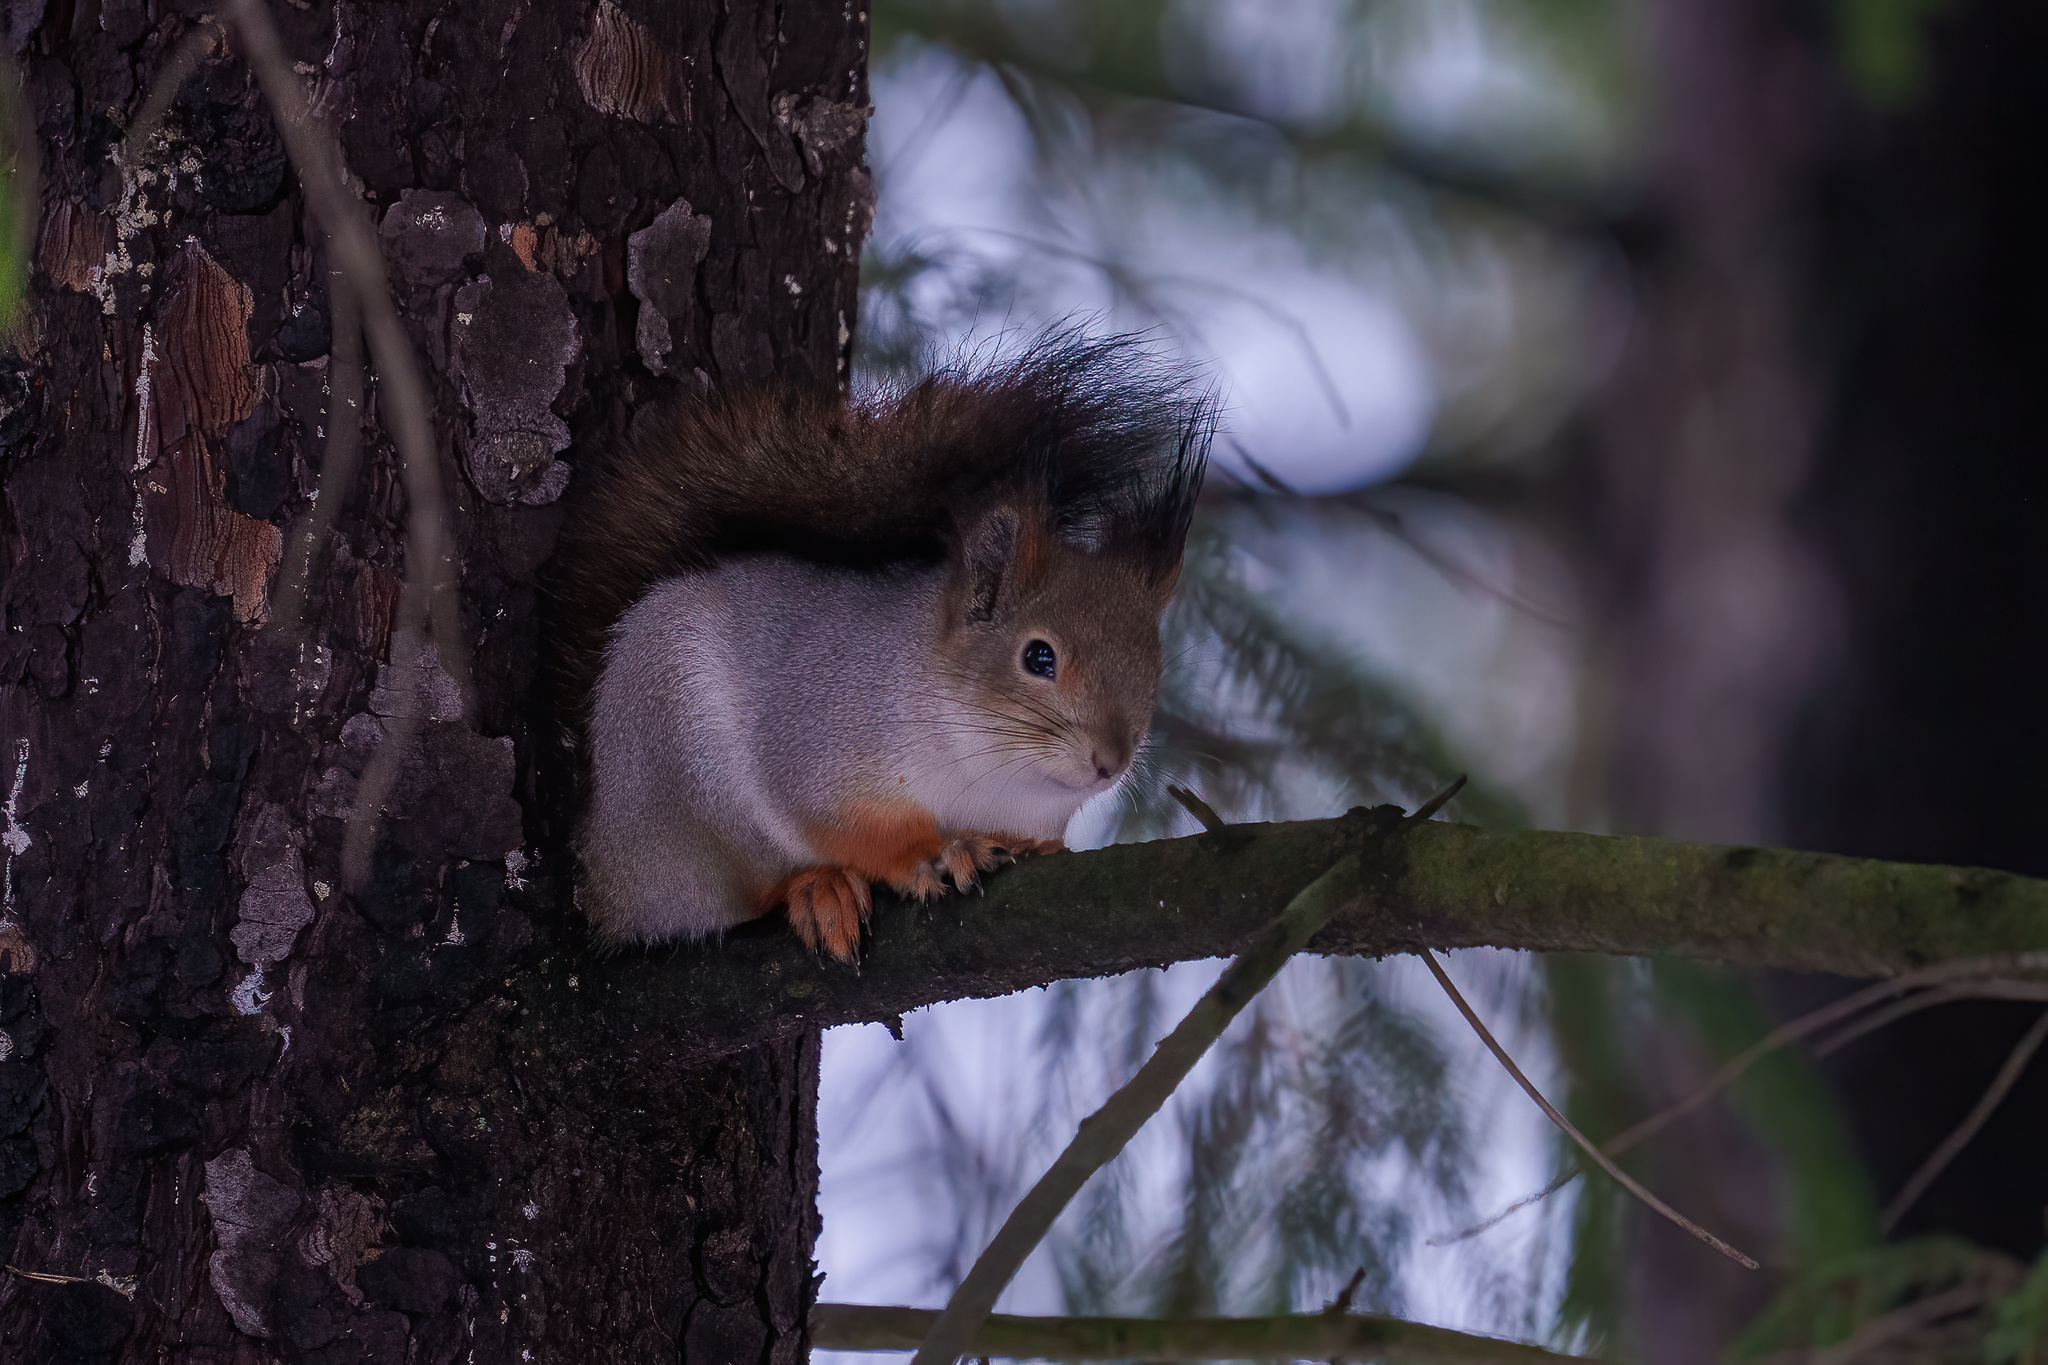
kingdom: Animalia
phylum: Chordata
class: Mammalia
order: Rodentia
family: Sciuridae
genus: Sciurus
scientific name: Sciurus vulgaris
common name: Eurasian red squirrel
